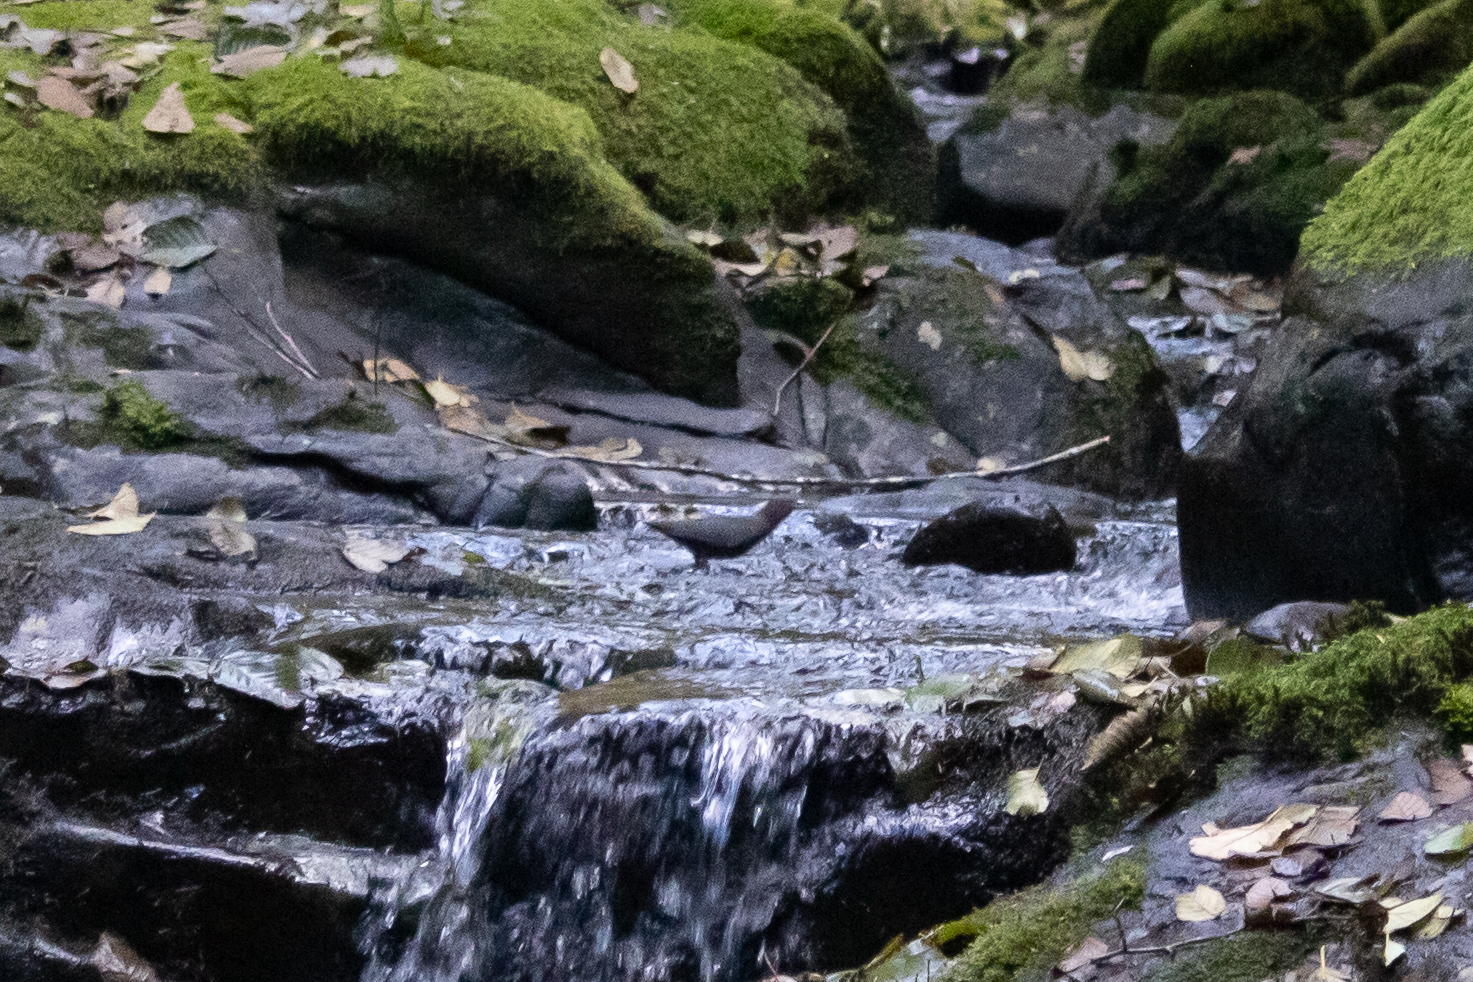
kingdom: Animalia
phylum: Chordata
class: Aves
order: Passeriformes
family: Cinclidae
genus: Cinclus
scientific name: Cinclus mexicanus
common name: American dipper
